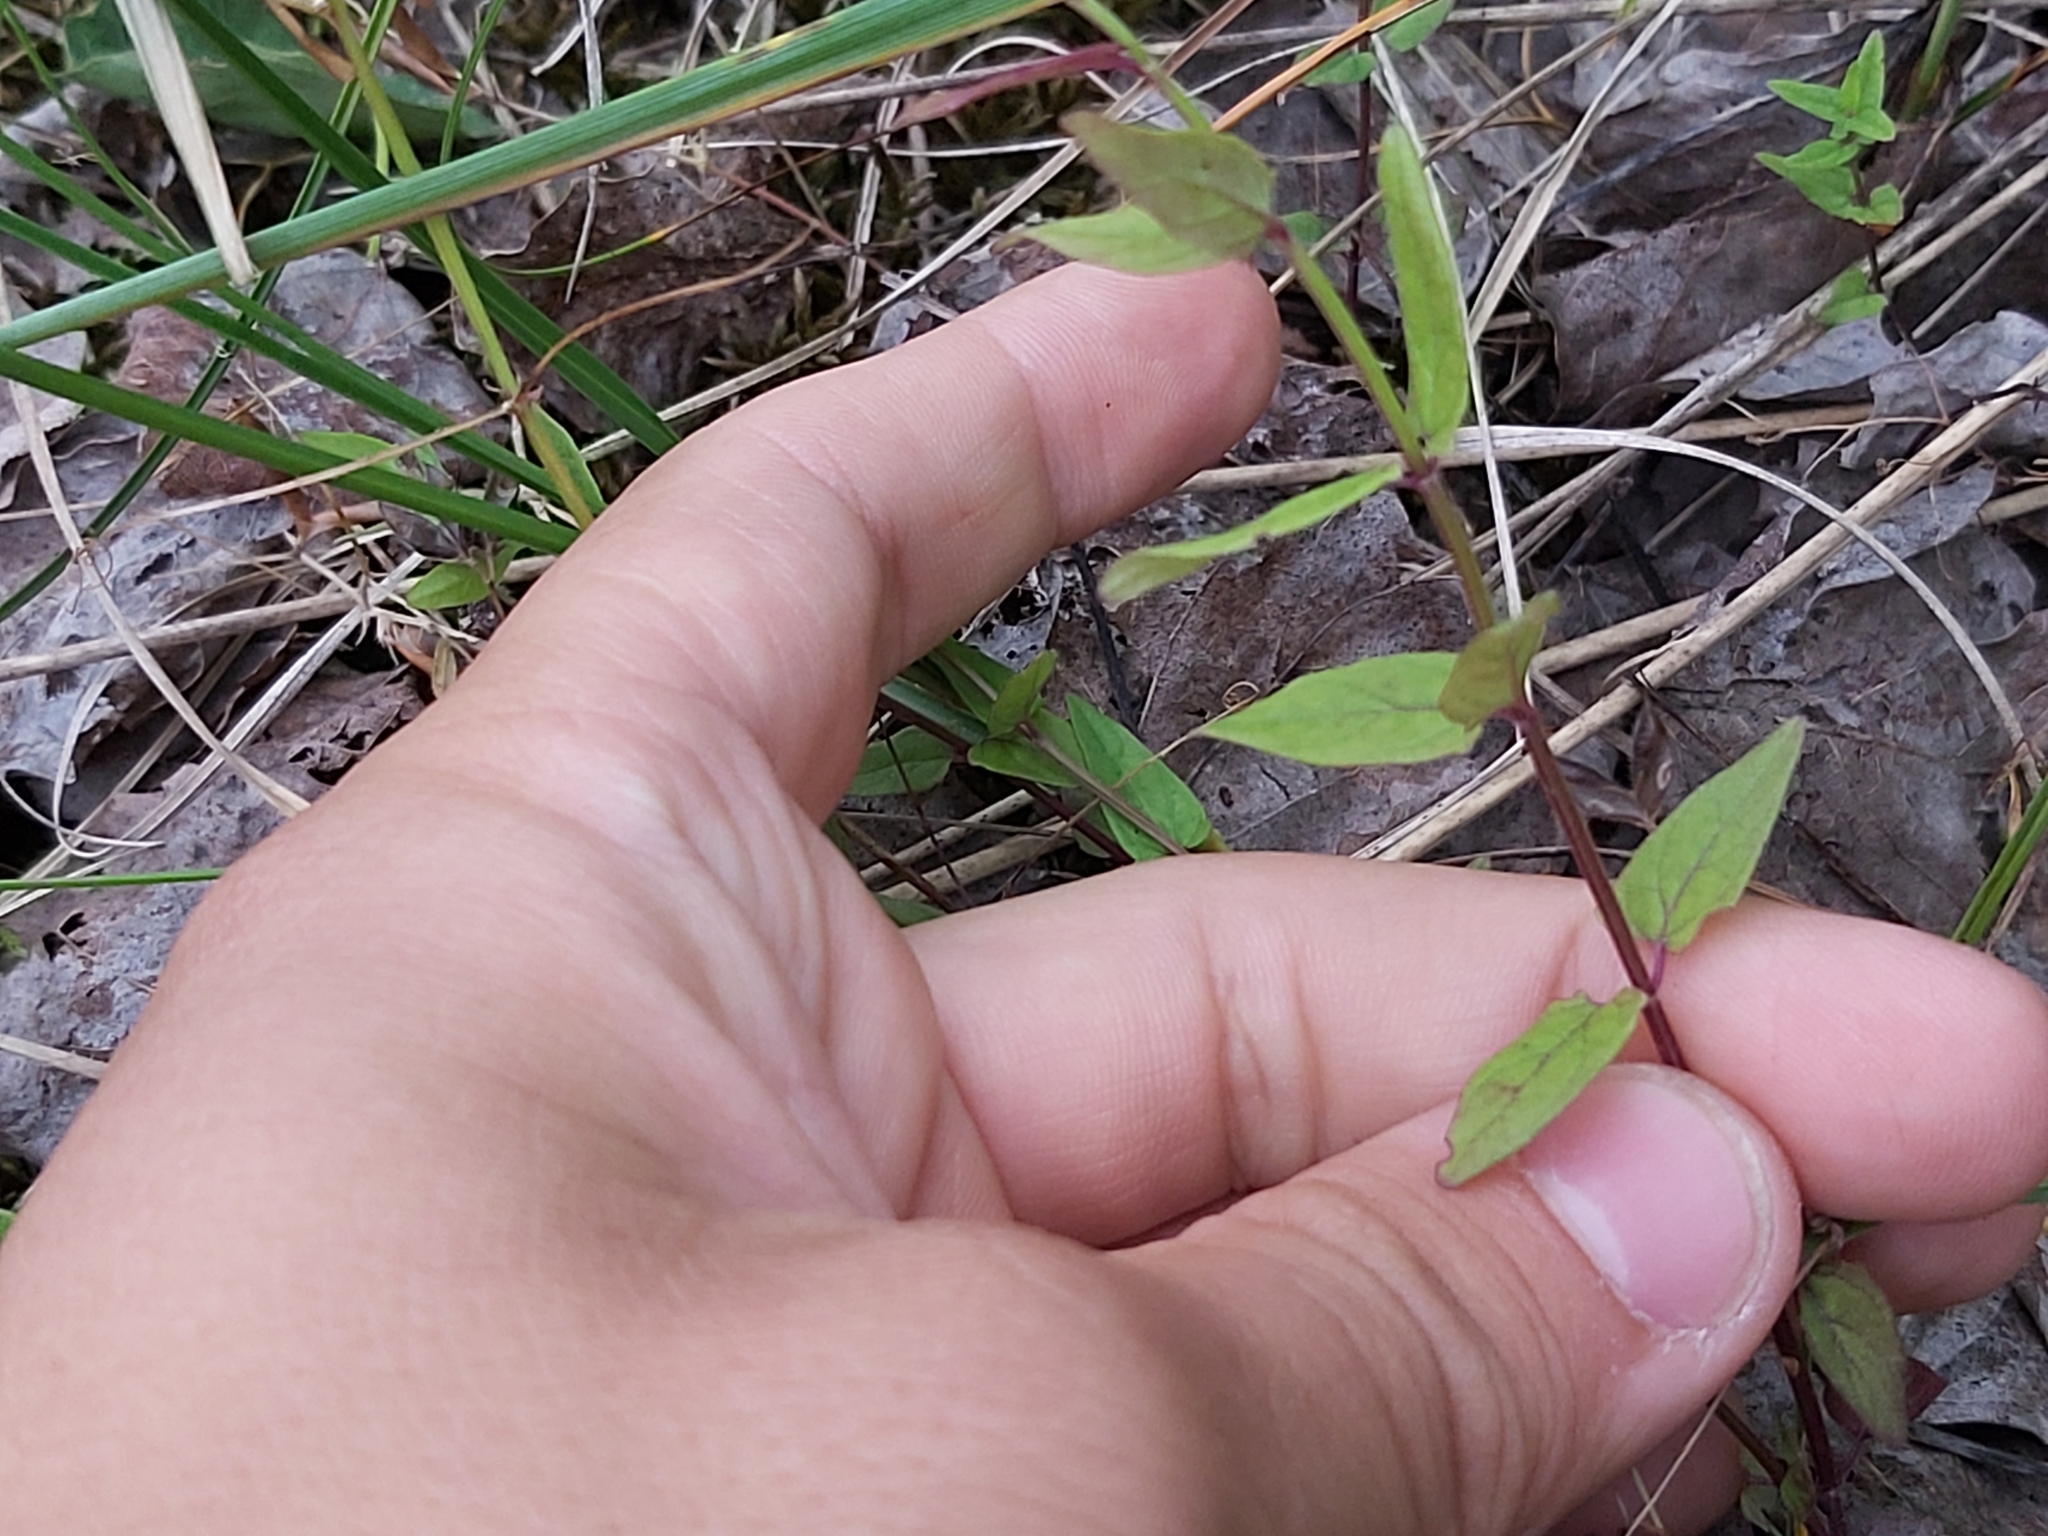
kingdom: Plantae
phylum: Tracheophyta
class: Magnoliopsida
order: Lamiales
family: Lamiaceae
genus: Scutellaria
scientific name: Scutellaria hastifolia
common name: Norfolk skullcap
